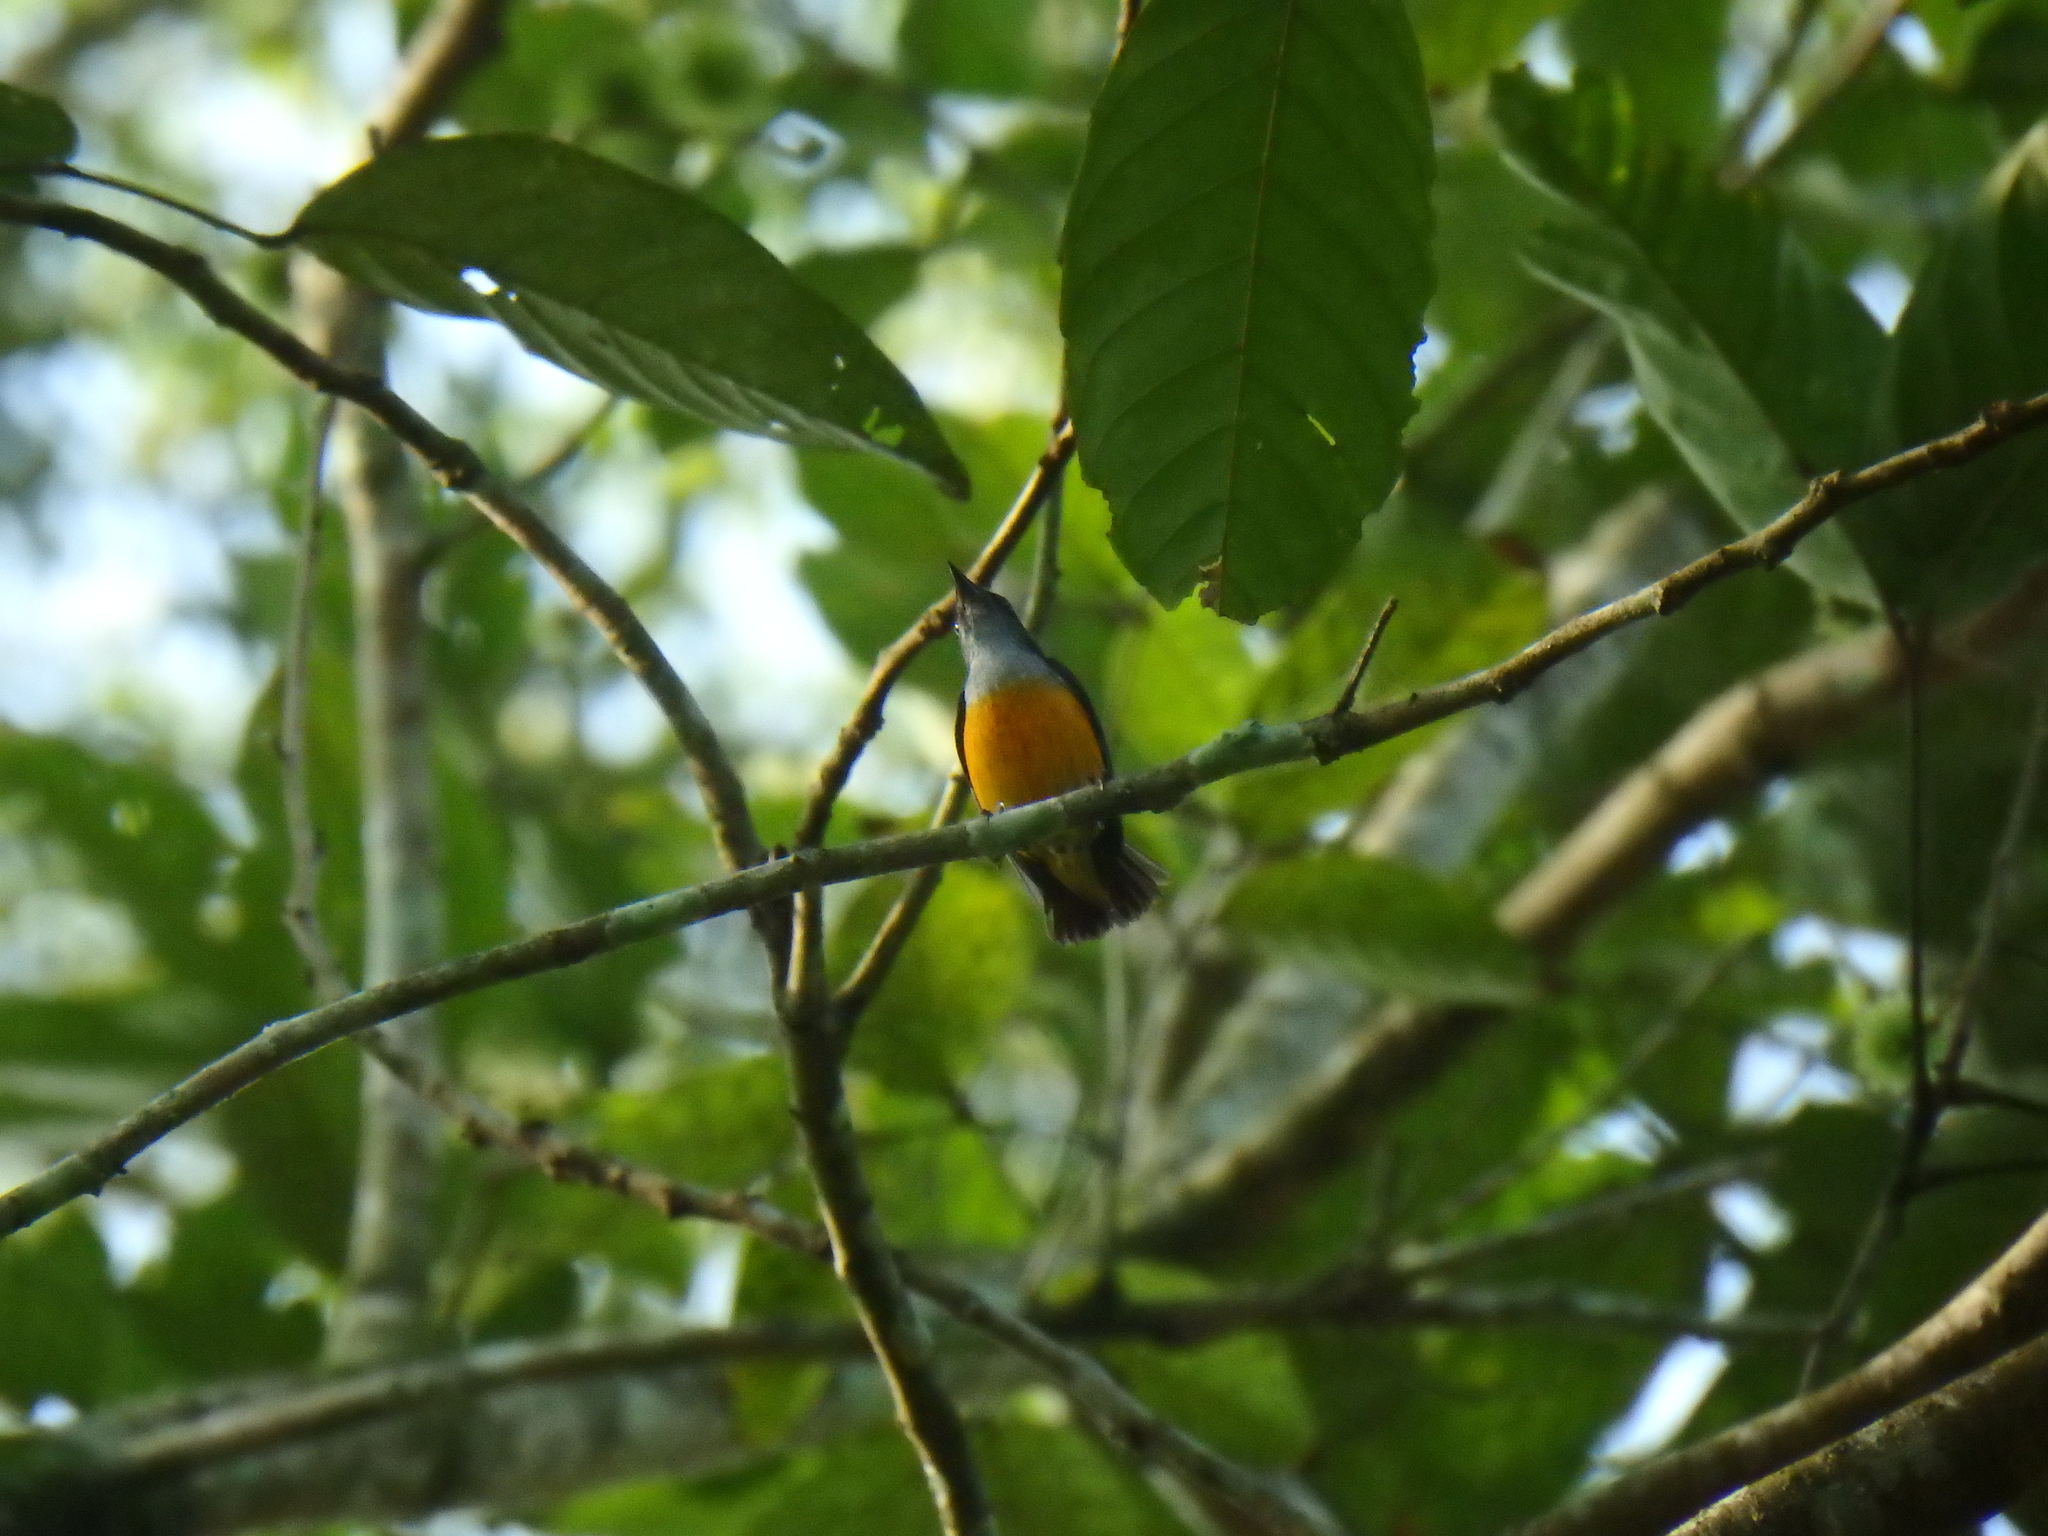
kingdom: Animalia
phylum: Chordata
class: Aves
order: Passeriformes
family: Dicaeidae
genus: Dicaeum
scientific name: Dicaeum trigonostigma
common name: Orange-bellied flowerpecker
